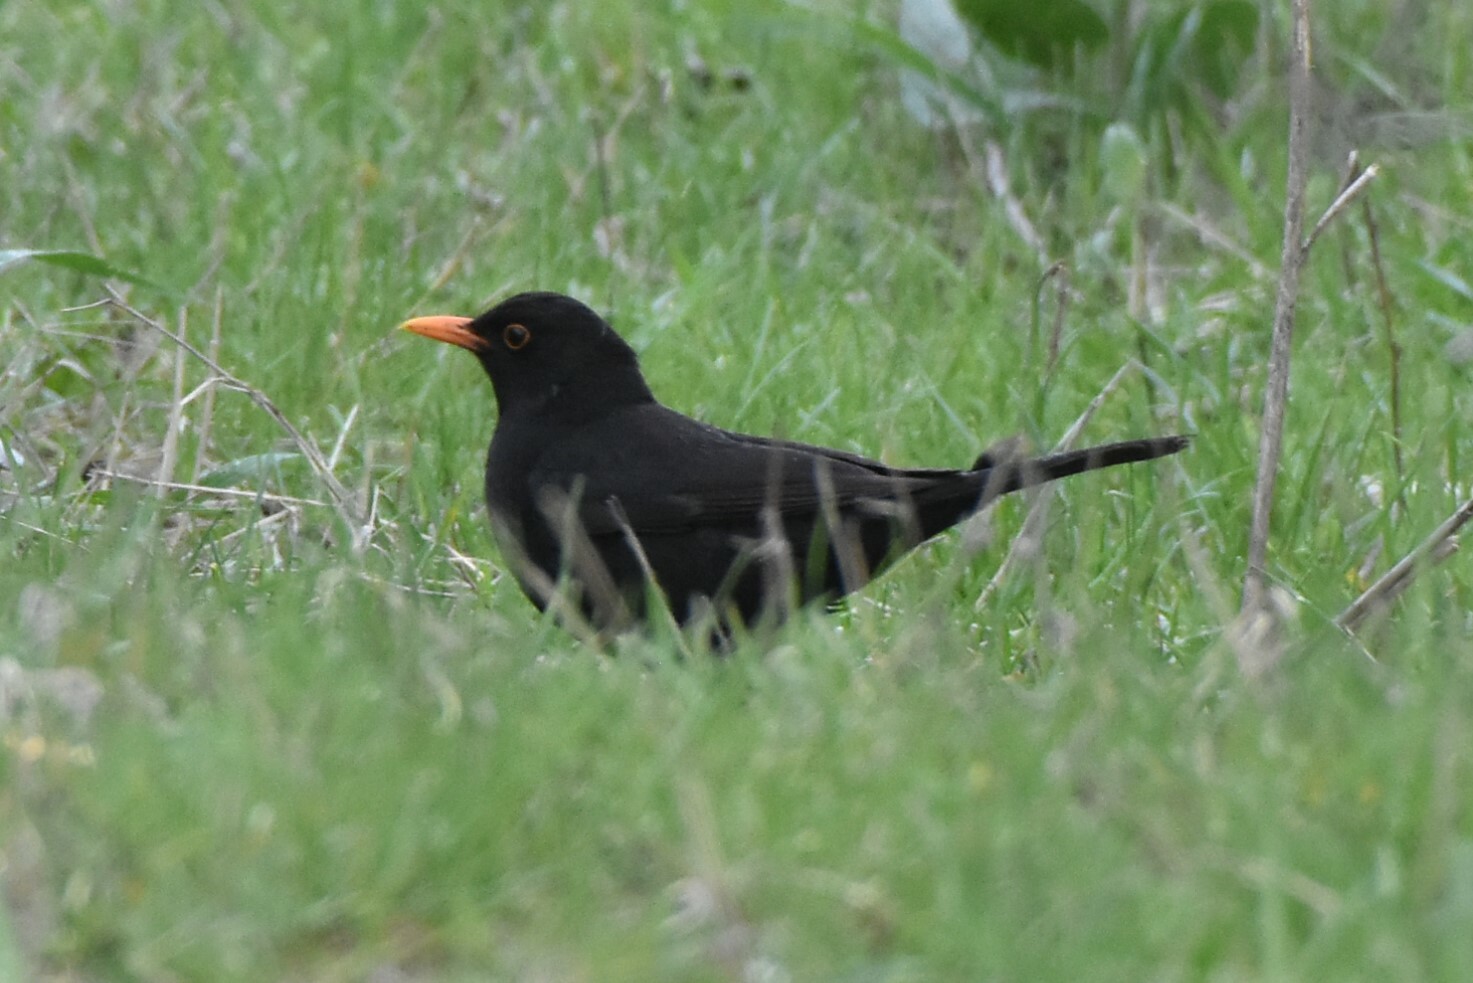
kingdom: Animalia
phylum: Chordata
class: Aves
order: Passeriformes
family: Turdidae
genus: Turdus
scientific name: Turdus merula
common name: Common blackbird
